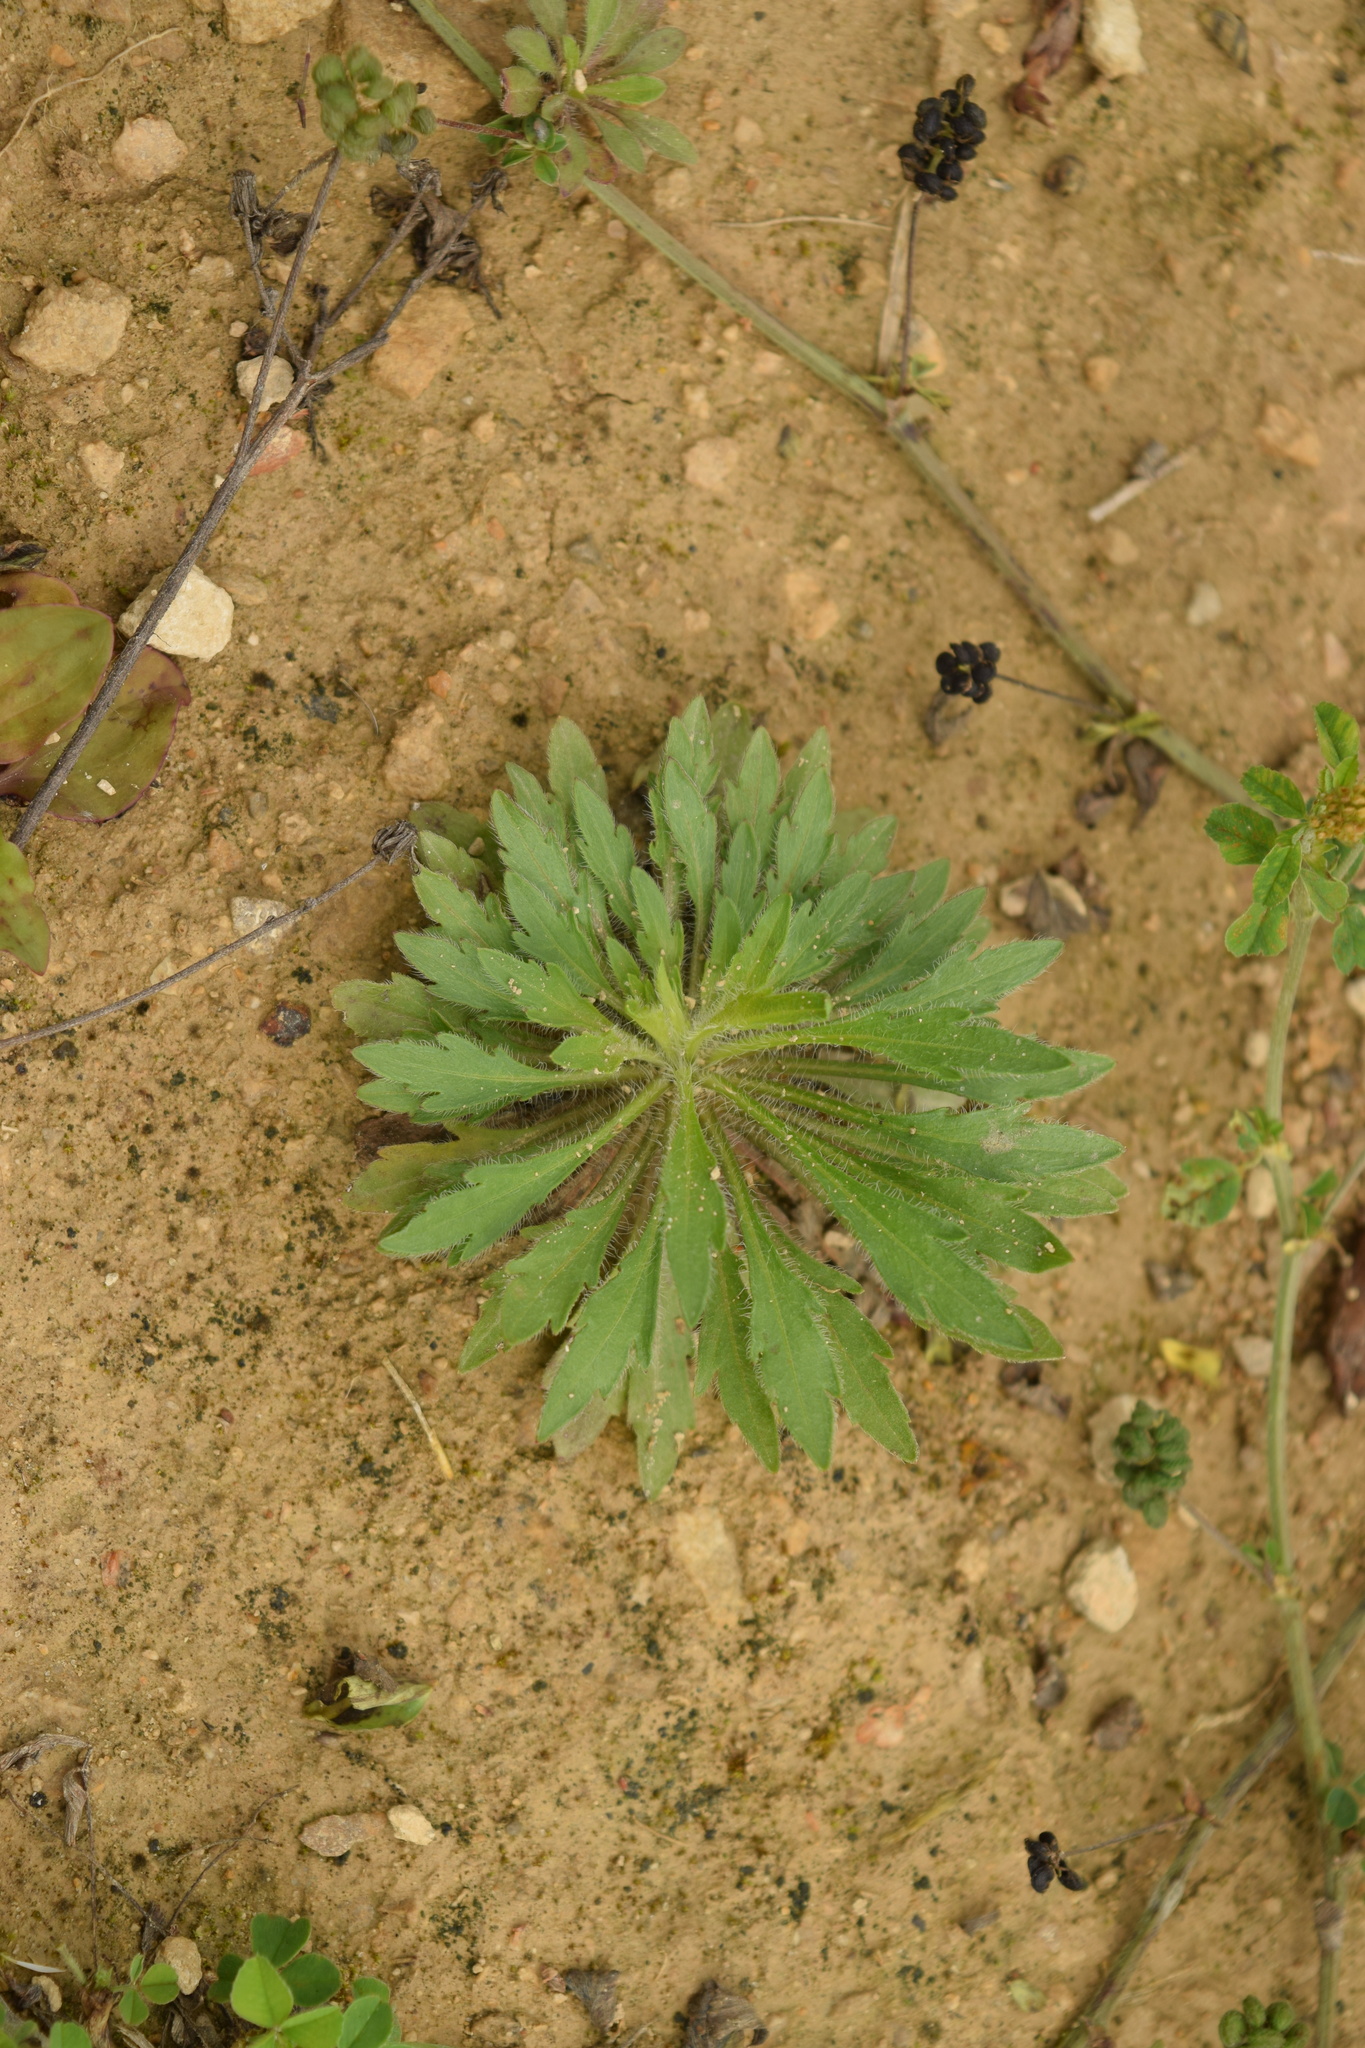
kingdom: Plantae
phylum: Tracheophyta
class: Magnoliopsida
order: Asterales
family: Asteraceae
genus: Erigeron
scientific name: Erigeron canadensis
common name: Canadian fleabane
